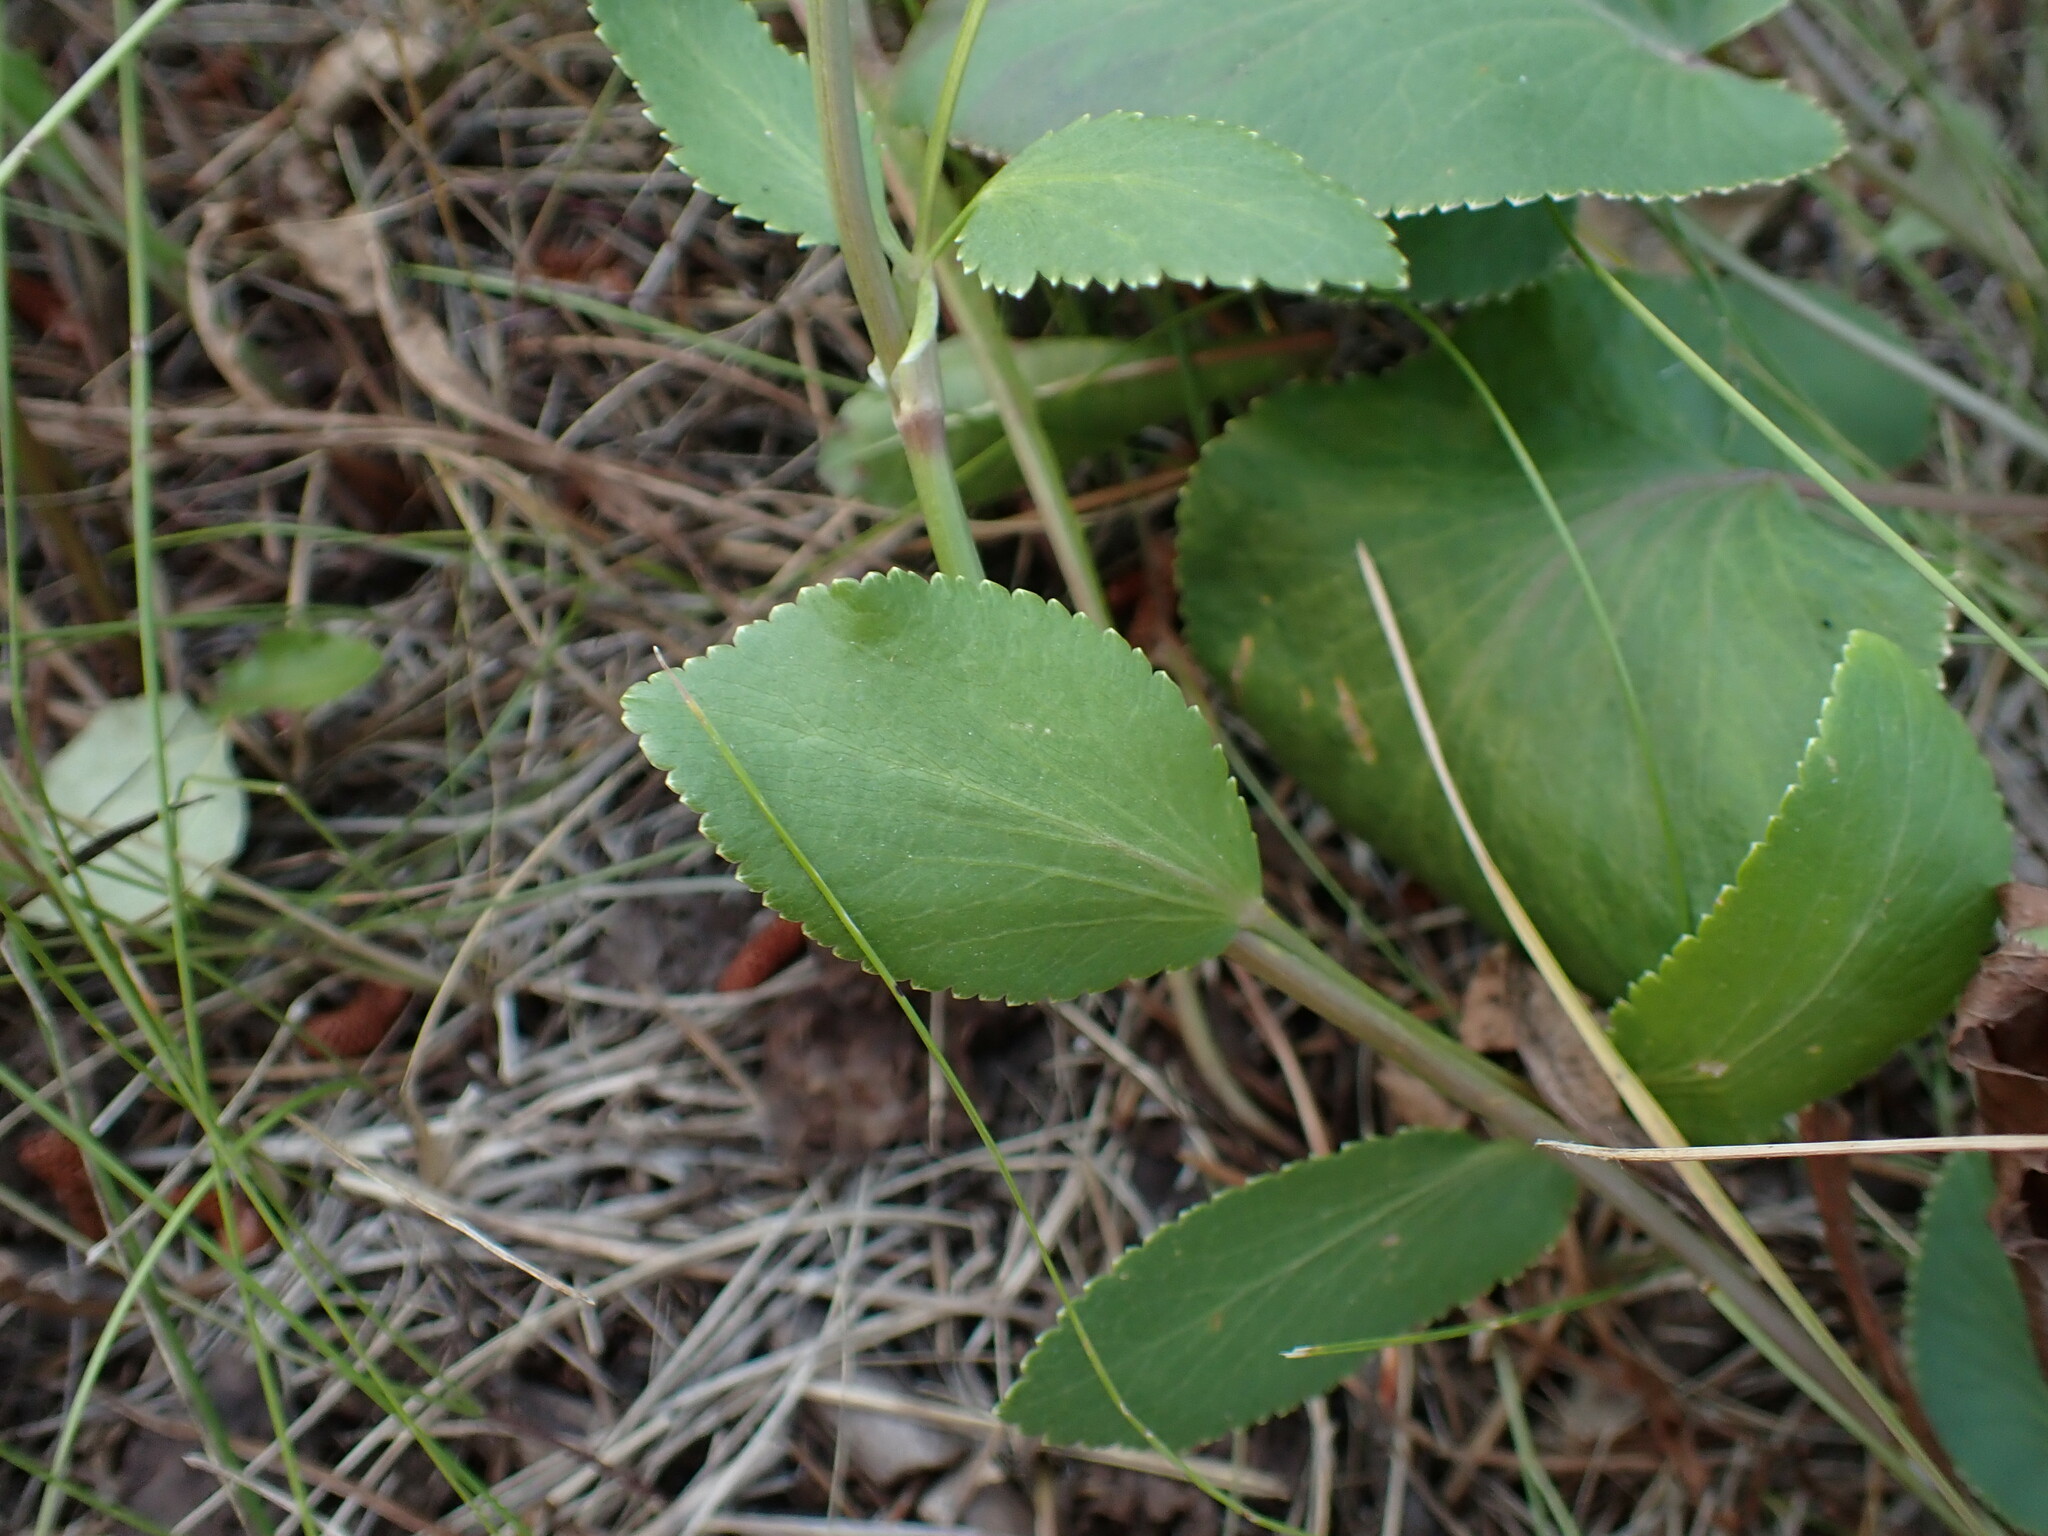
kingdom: Plantae
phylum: Tracheophyta
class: Magnoliopsida
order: Apiales
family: Apiaceae
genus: Zizia
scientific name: Zizia aptera
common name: Heart-leaved alexanders
